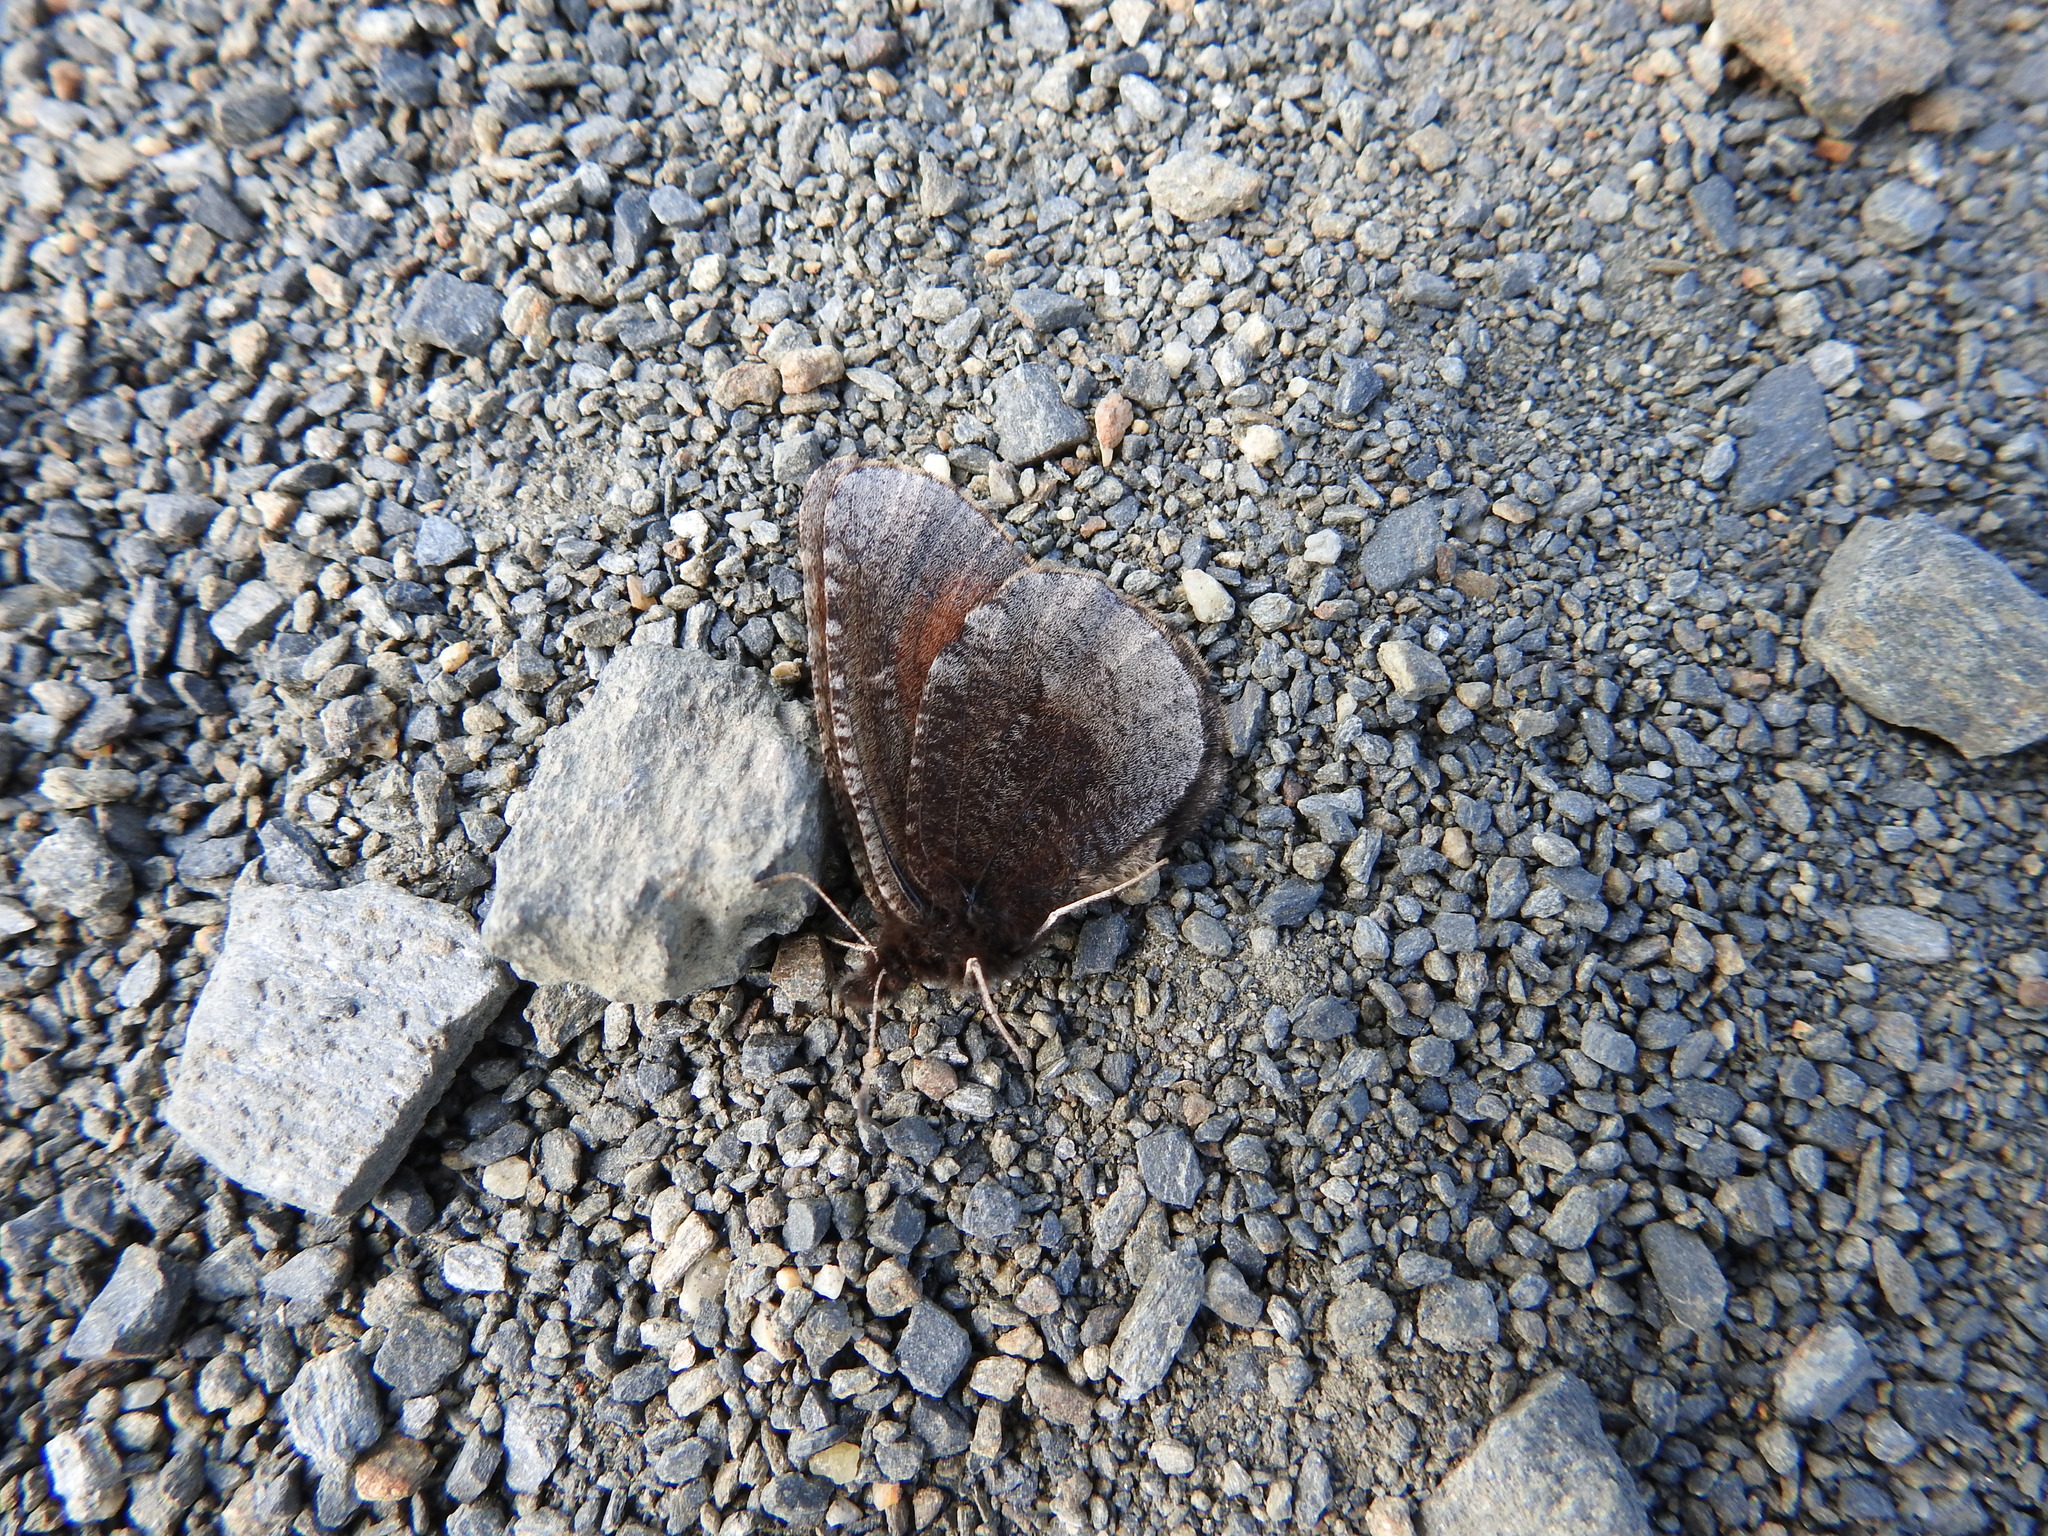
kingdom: Animalia
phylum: Arthropoda
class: Insecta
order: Lepidoptera
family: Nymphalidae
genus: Erebia
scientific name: Erebia discoidalis
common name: Red-disked alpine
